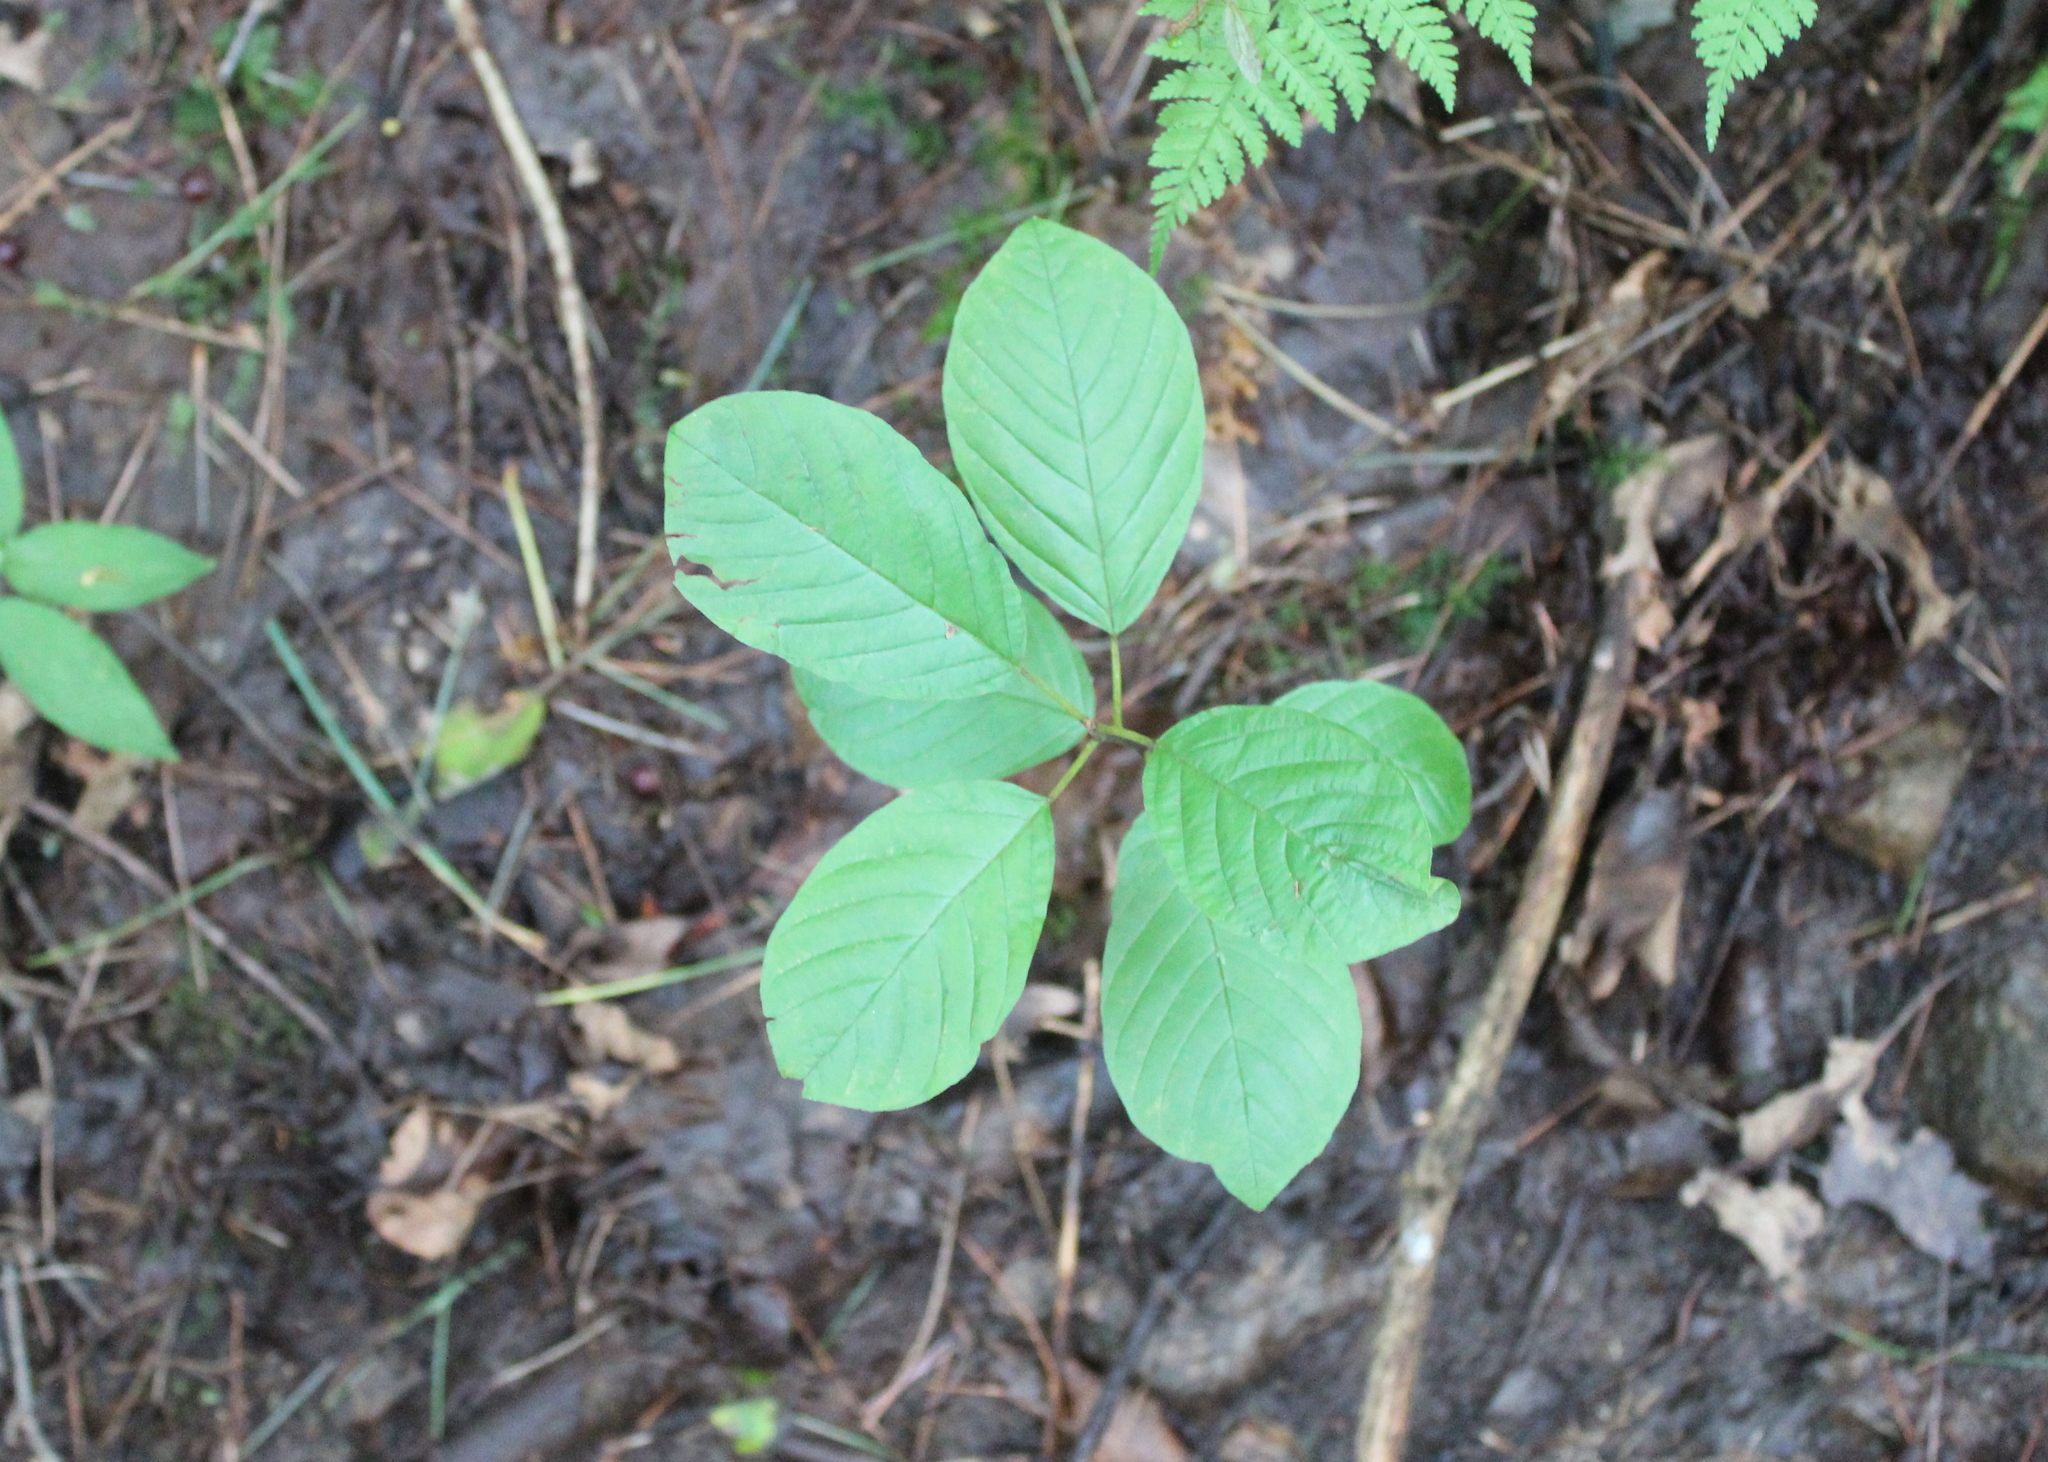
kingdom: Plantae
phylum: Tracheophyta
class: Magnoliopsida
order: Rosales
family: Rhamnaceae
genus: Frangula
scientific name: Frangula alnus
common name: Alder buckthorn
